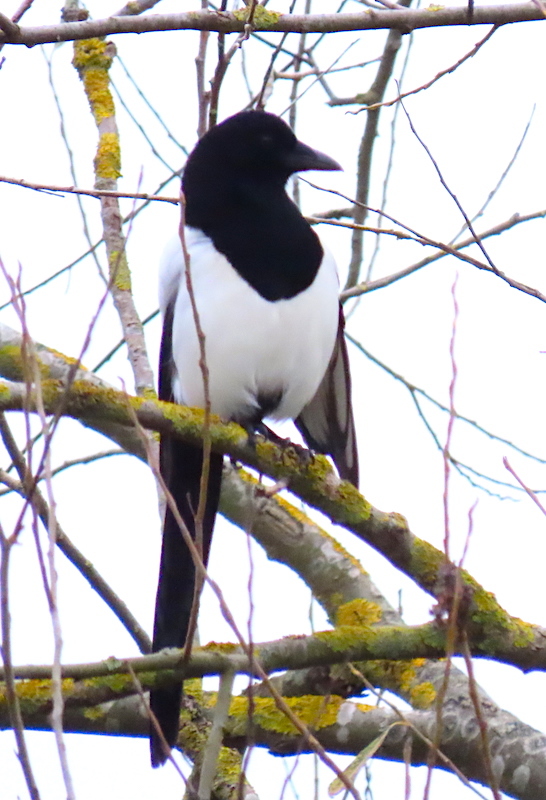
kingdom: Animalia
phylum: Chordata
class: Aves
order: Passeriformes
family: Corvidae
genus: Pica
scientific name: Pica pica
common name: Eurasian magpie
